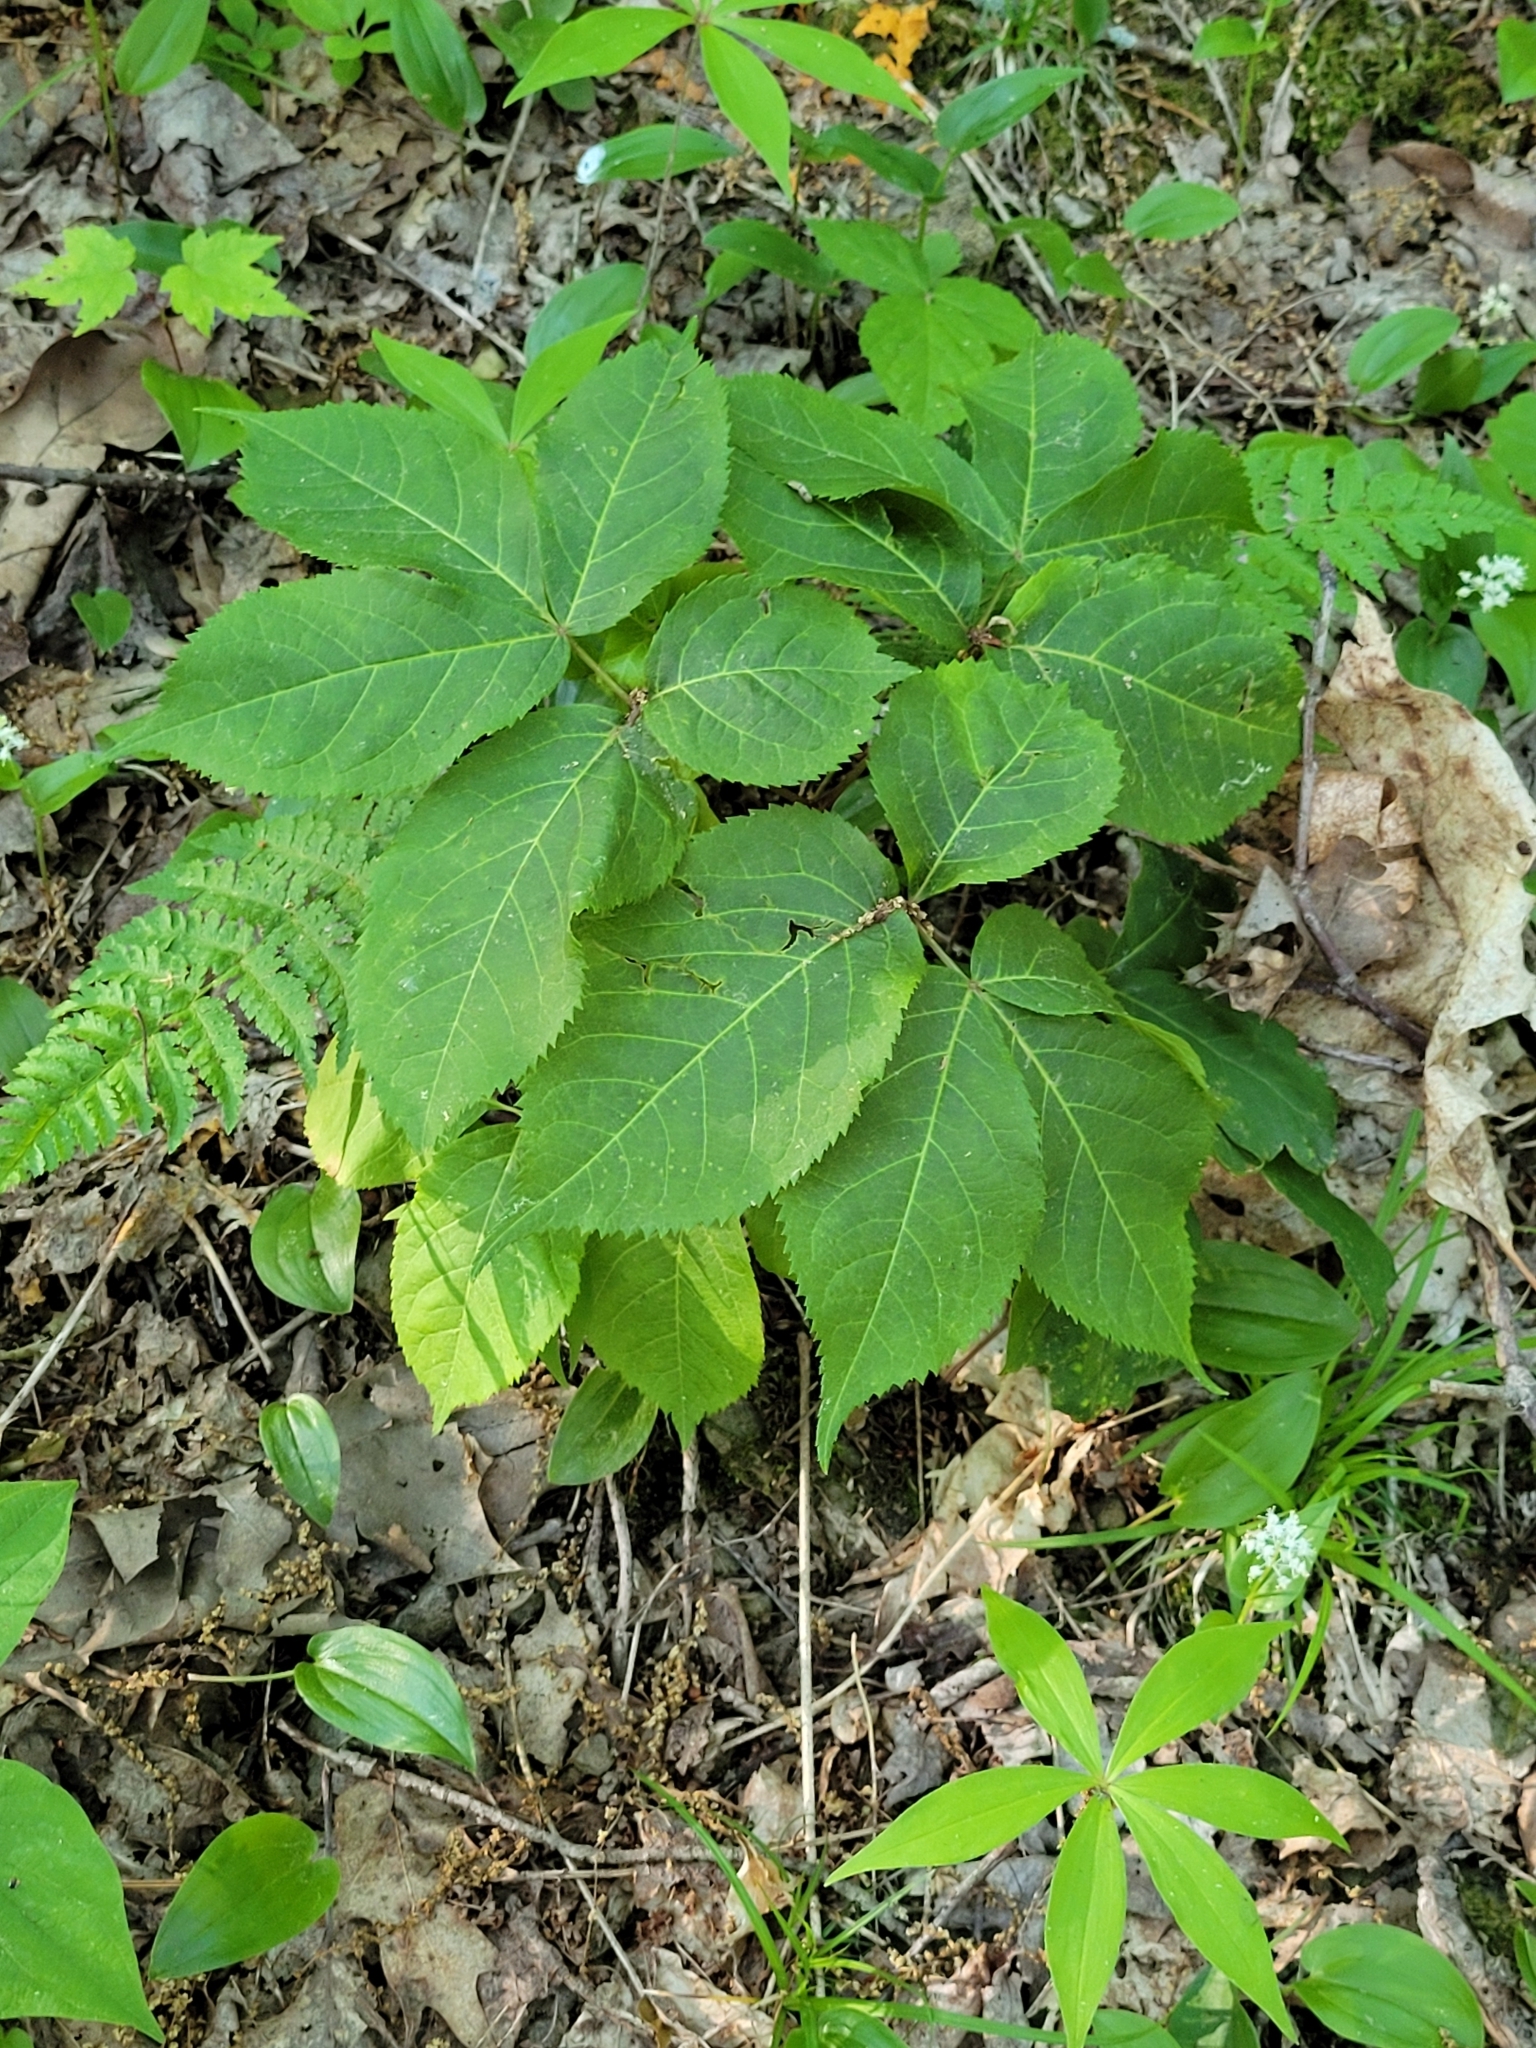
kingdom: Plantae
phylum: Tracheophyta
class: Magnoliopsida
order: Apiales
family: Araliaceae
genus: Aralia
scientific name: Aralia nudicaulis
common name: Wild sarsaparilla
